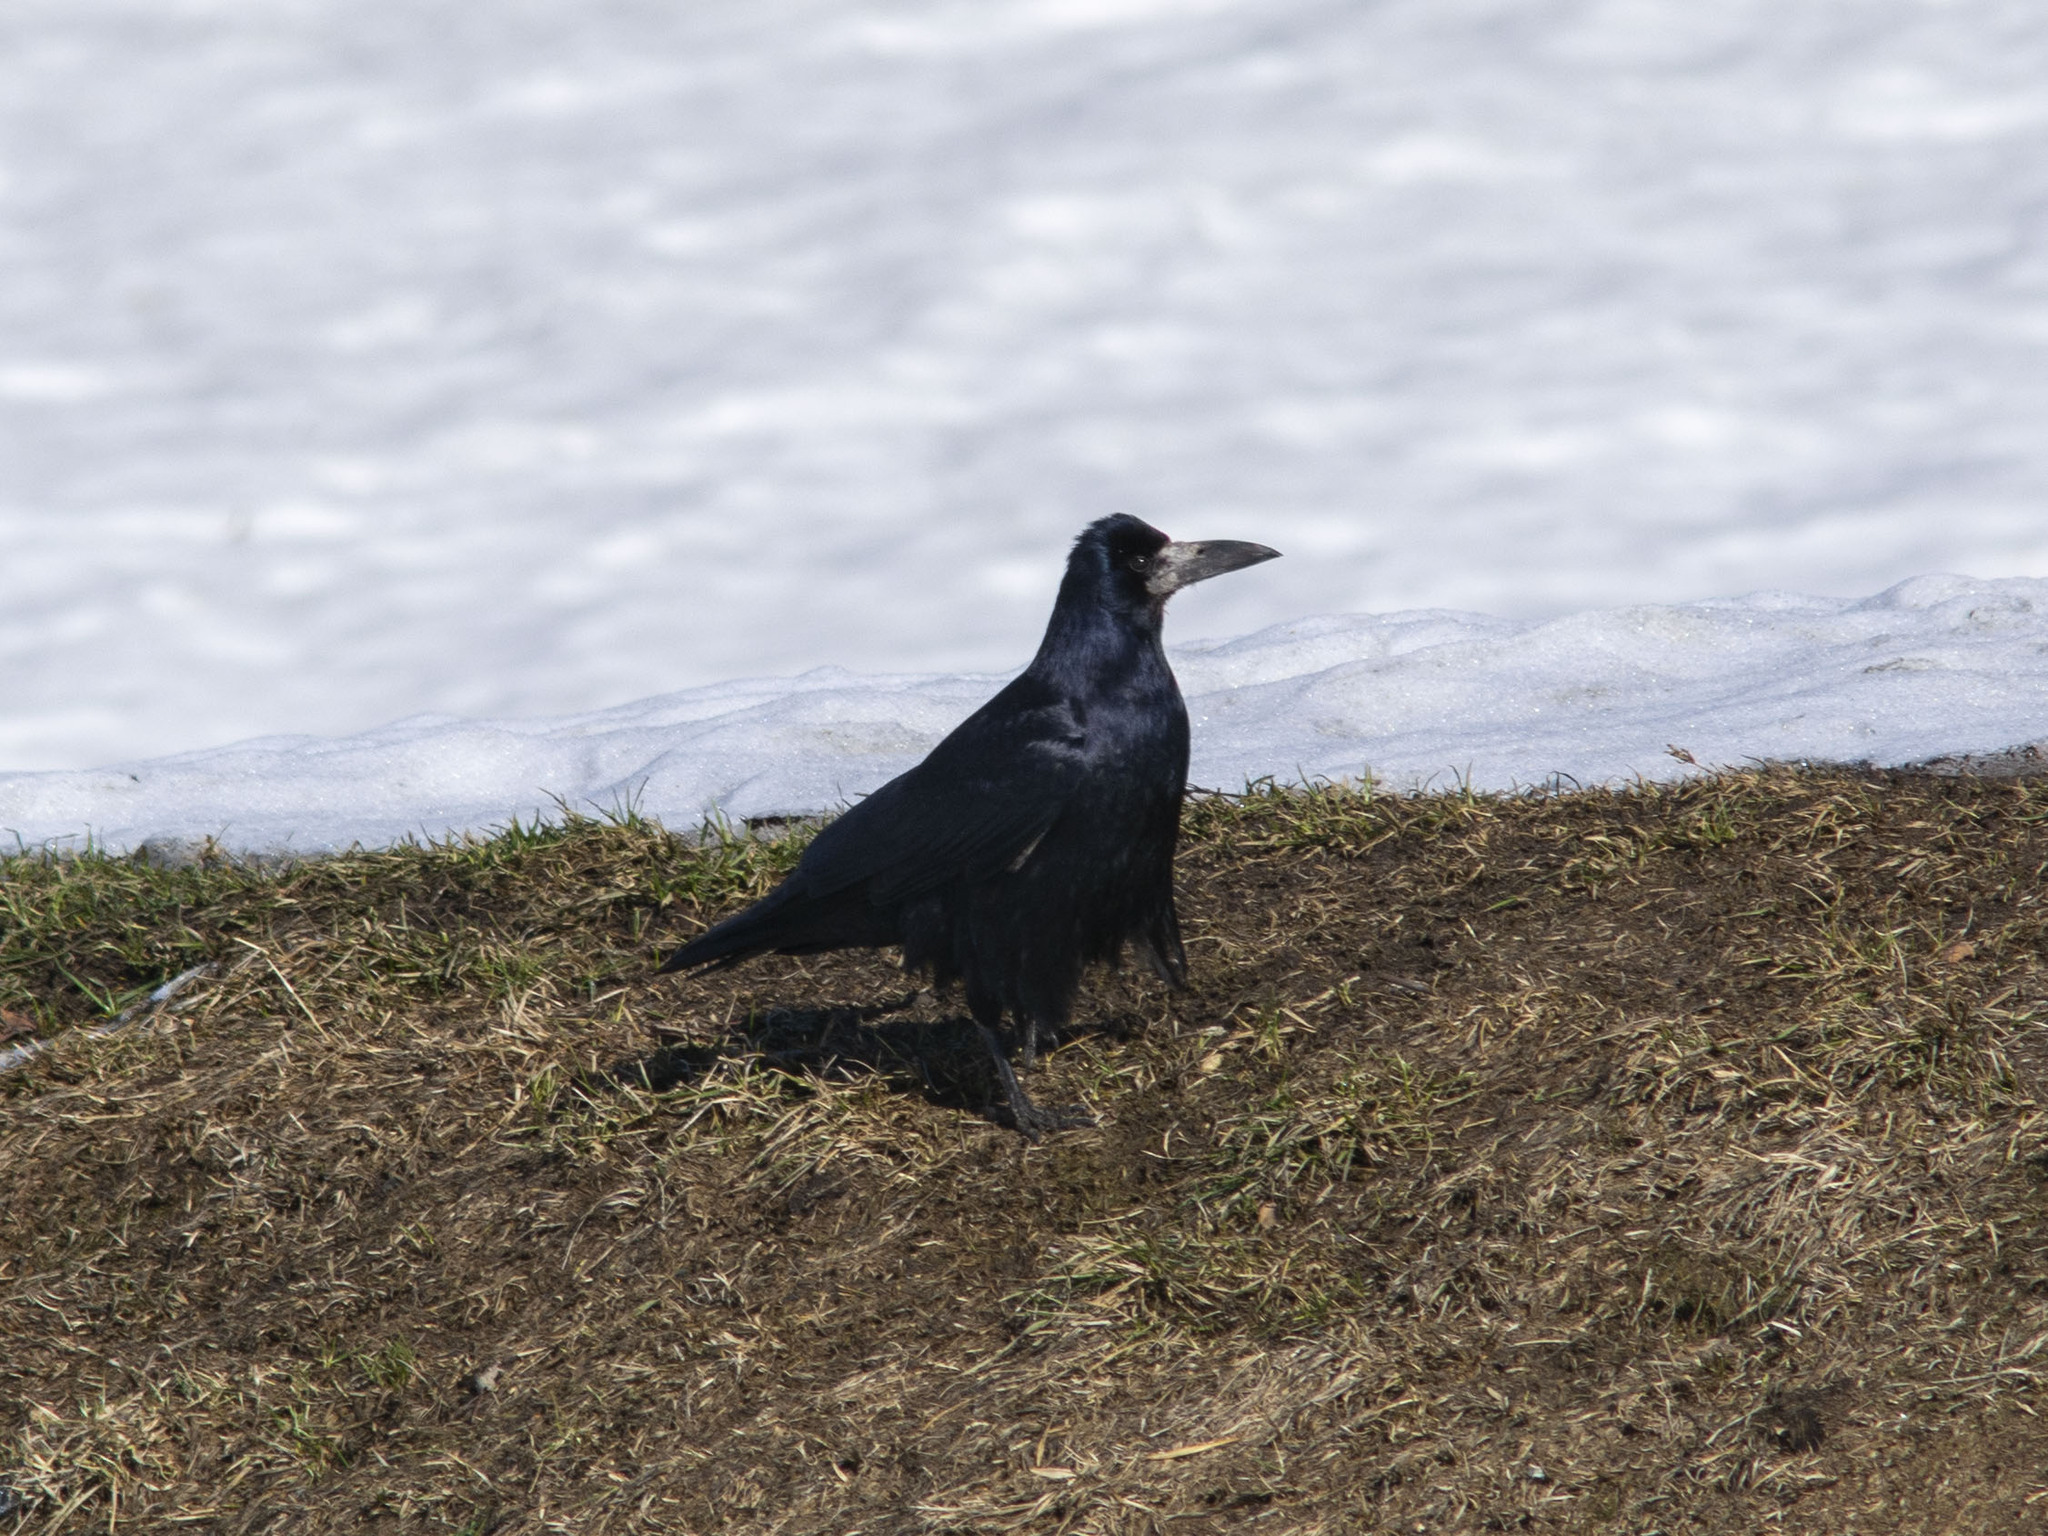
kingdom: Animalia
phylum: Chordata
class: Aves
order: Passeriformes
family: Corvidae
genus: Corvus
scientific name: Corvus frugilegus
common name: Rook
